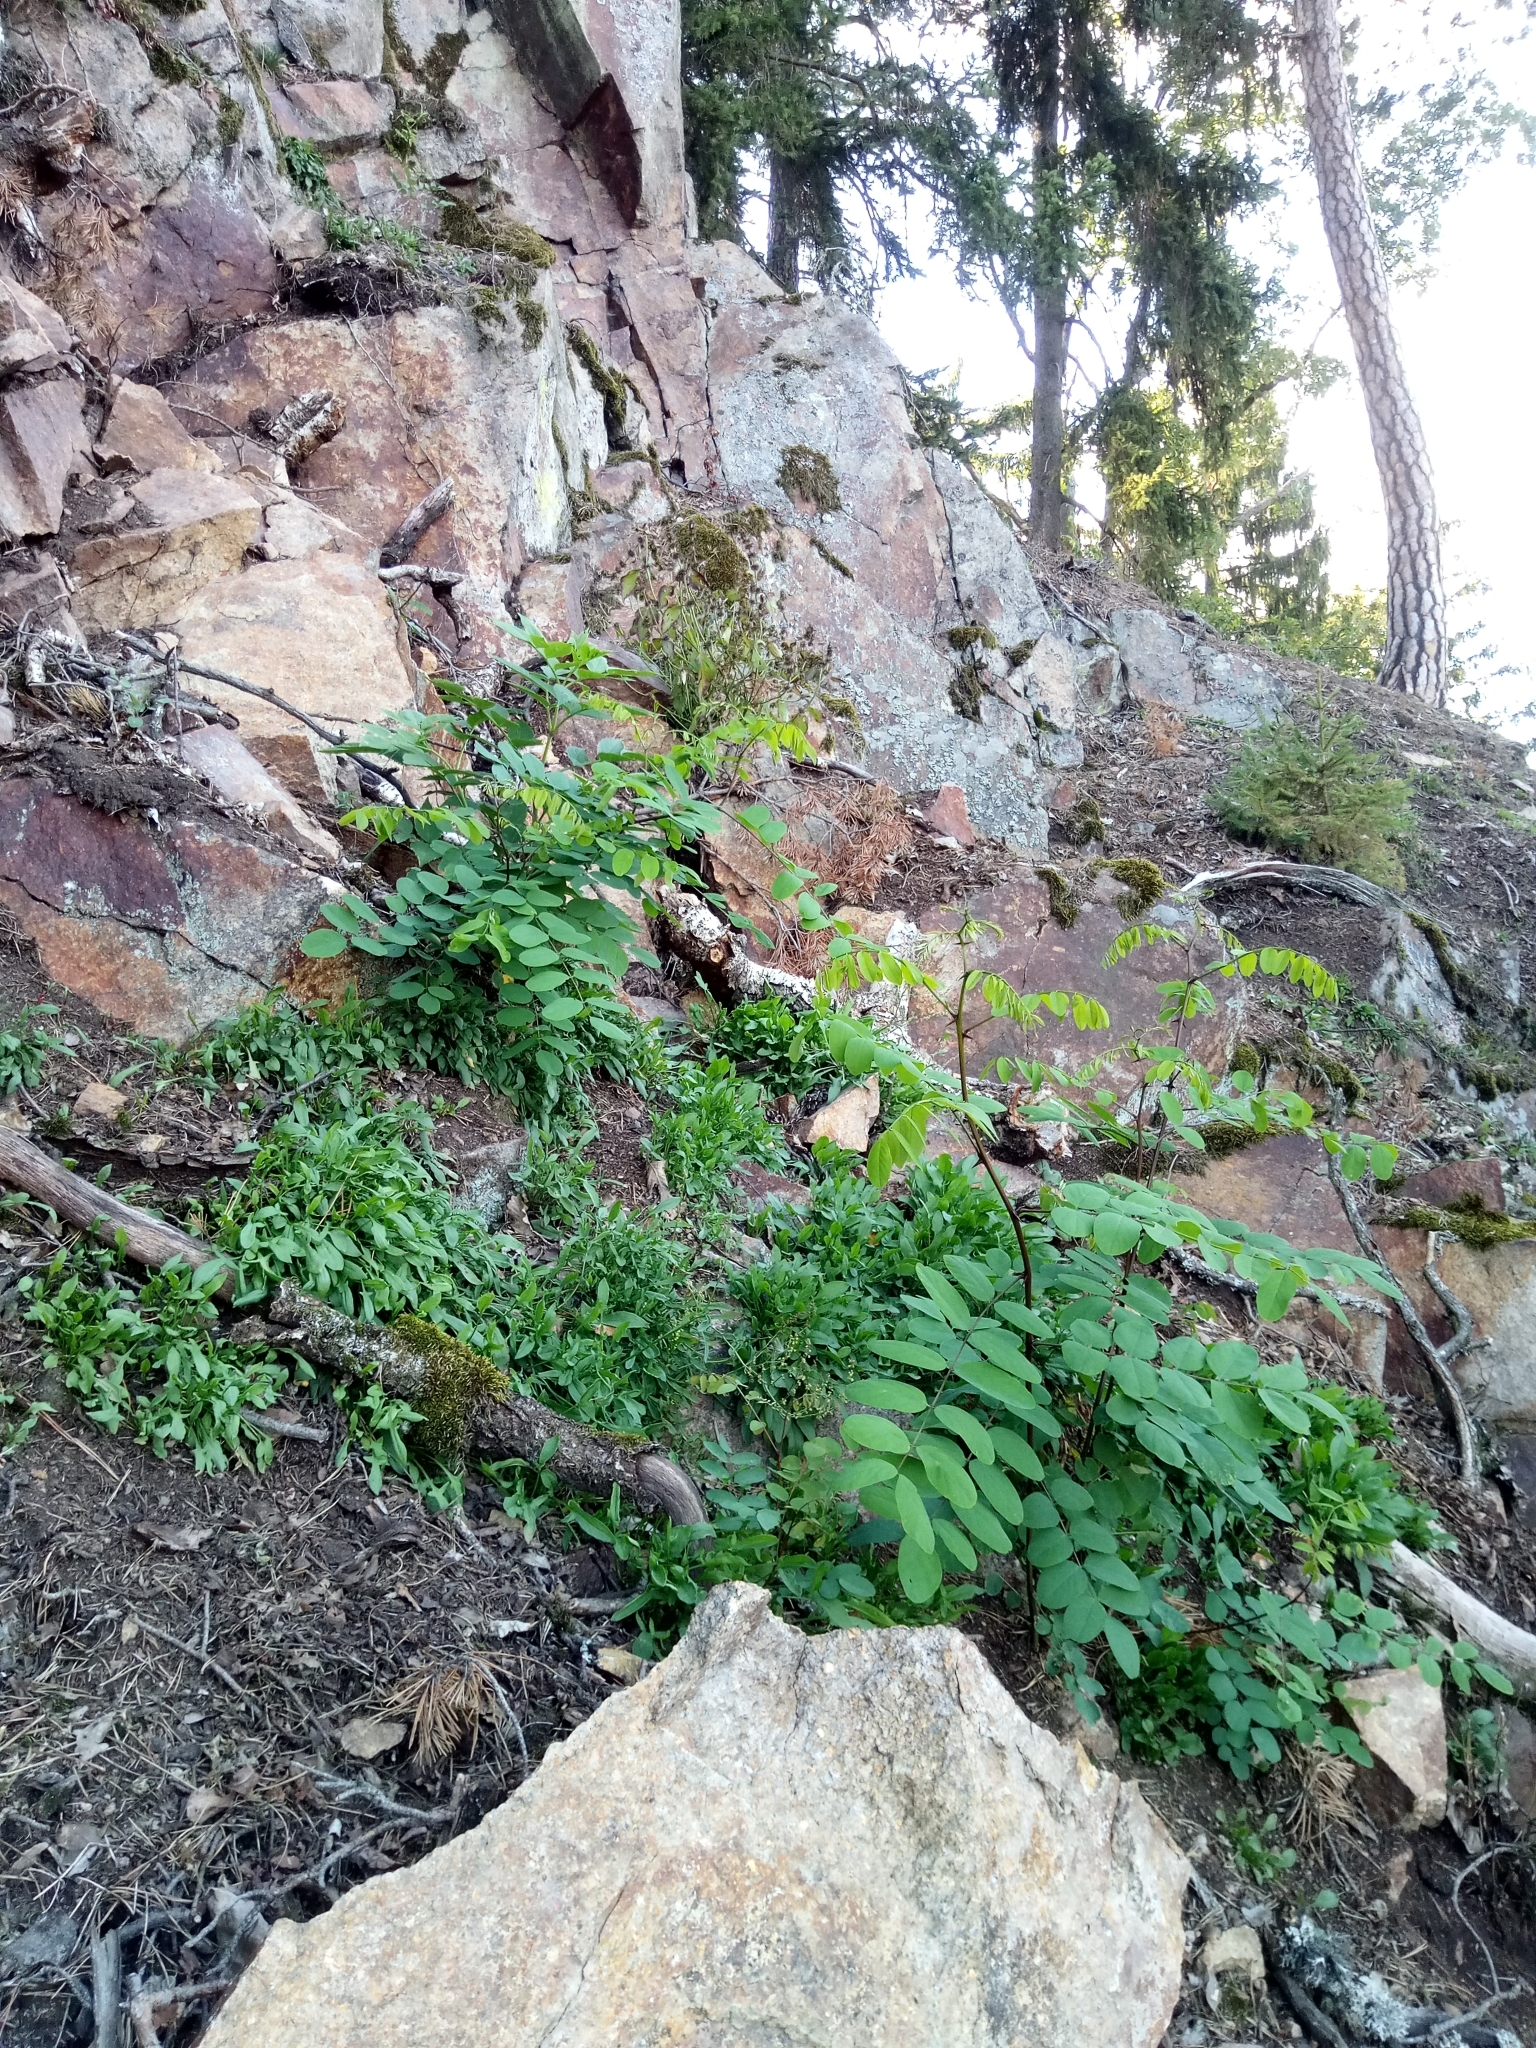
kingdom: Plantae
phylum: Tracheophyta
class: Magnoliopsida
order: Fabales
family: Fabaceae
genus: Robinia
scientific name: Robinia pseudoacacia
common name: Black locust
